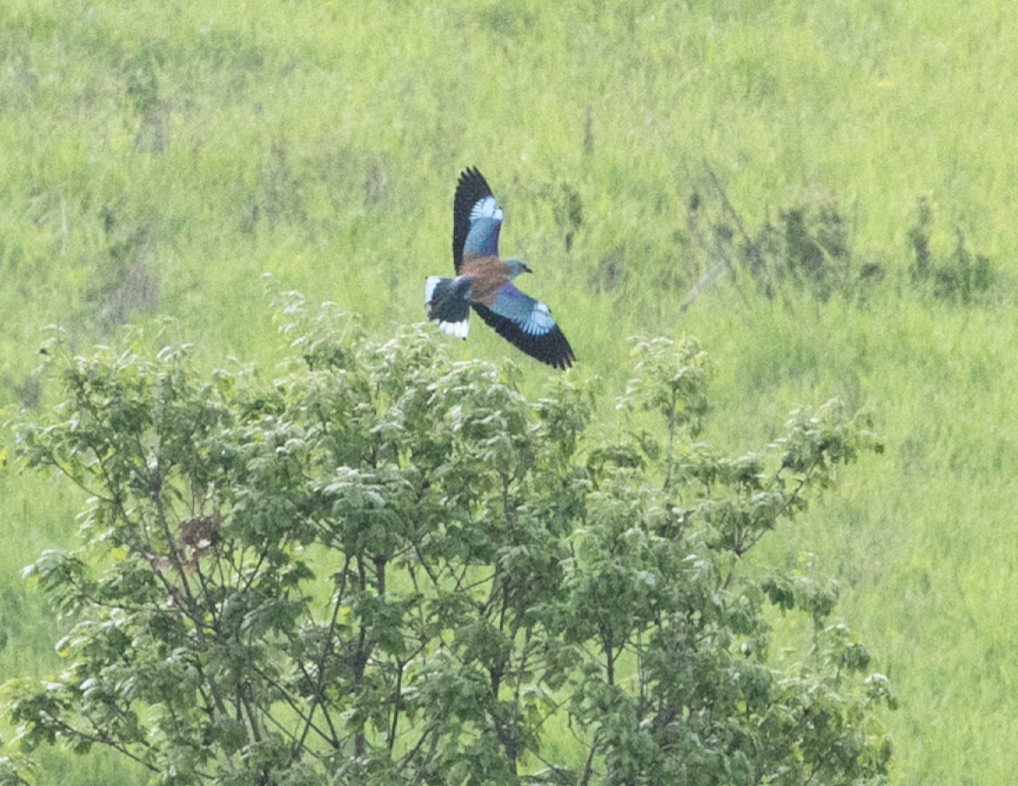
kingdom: Animalia
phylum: Chordata
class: Aves
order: Coraciiformes
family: Coraciidae
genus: Coracias
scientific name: Coracias garrulus
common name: European roller
